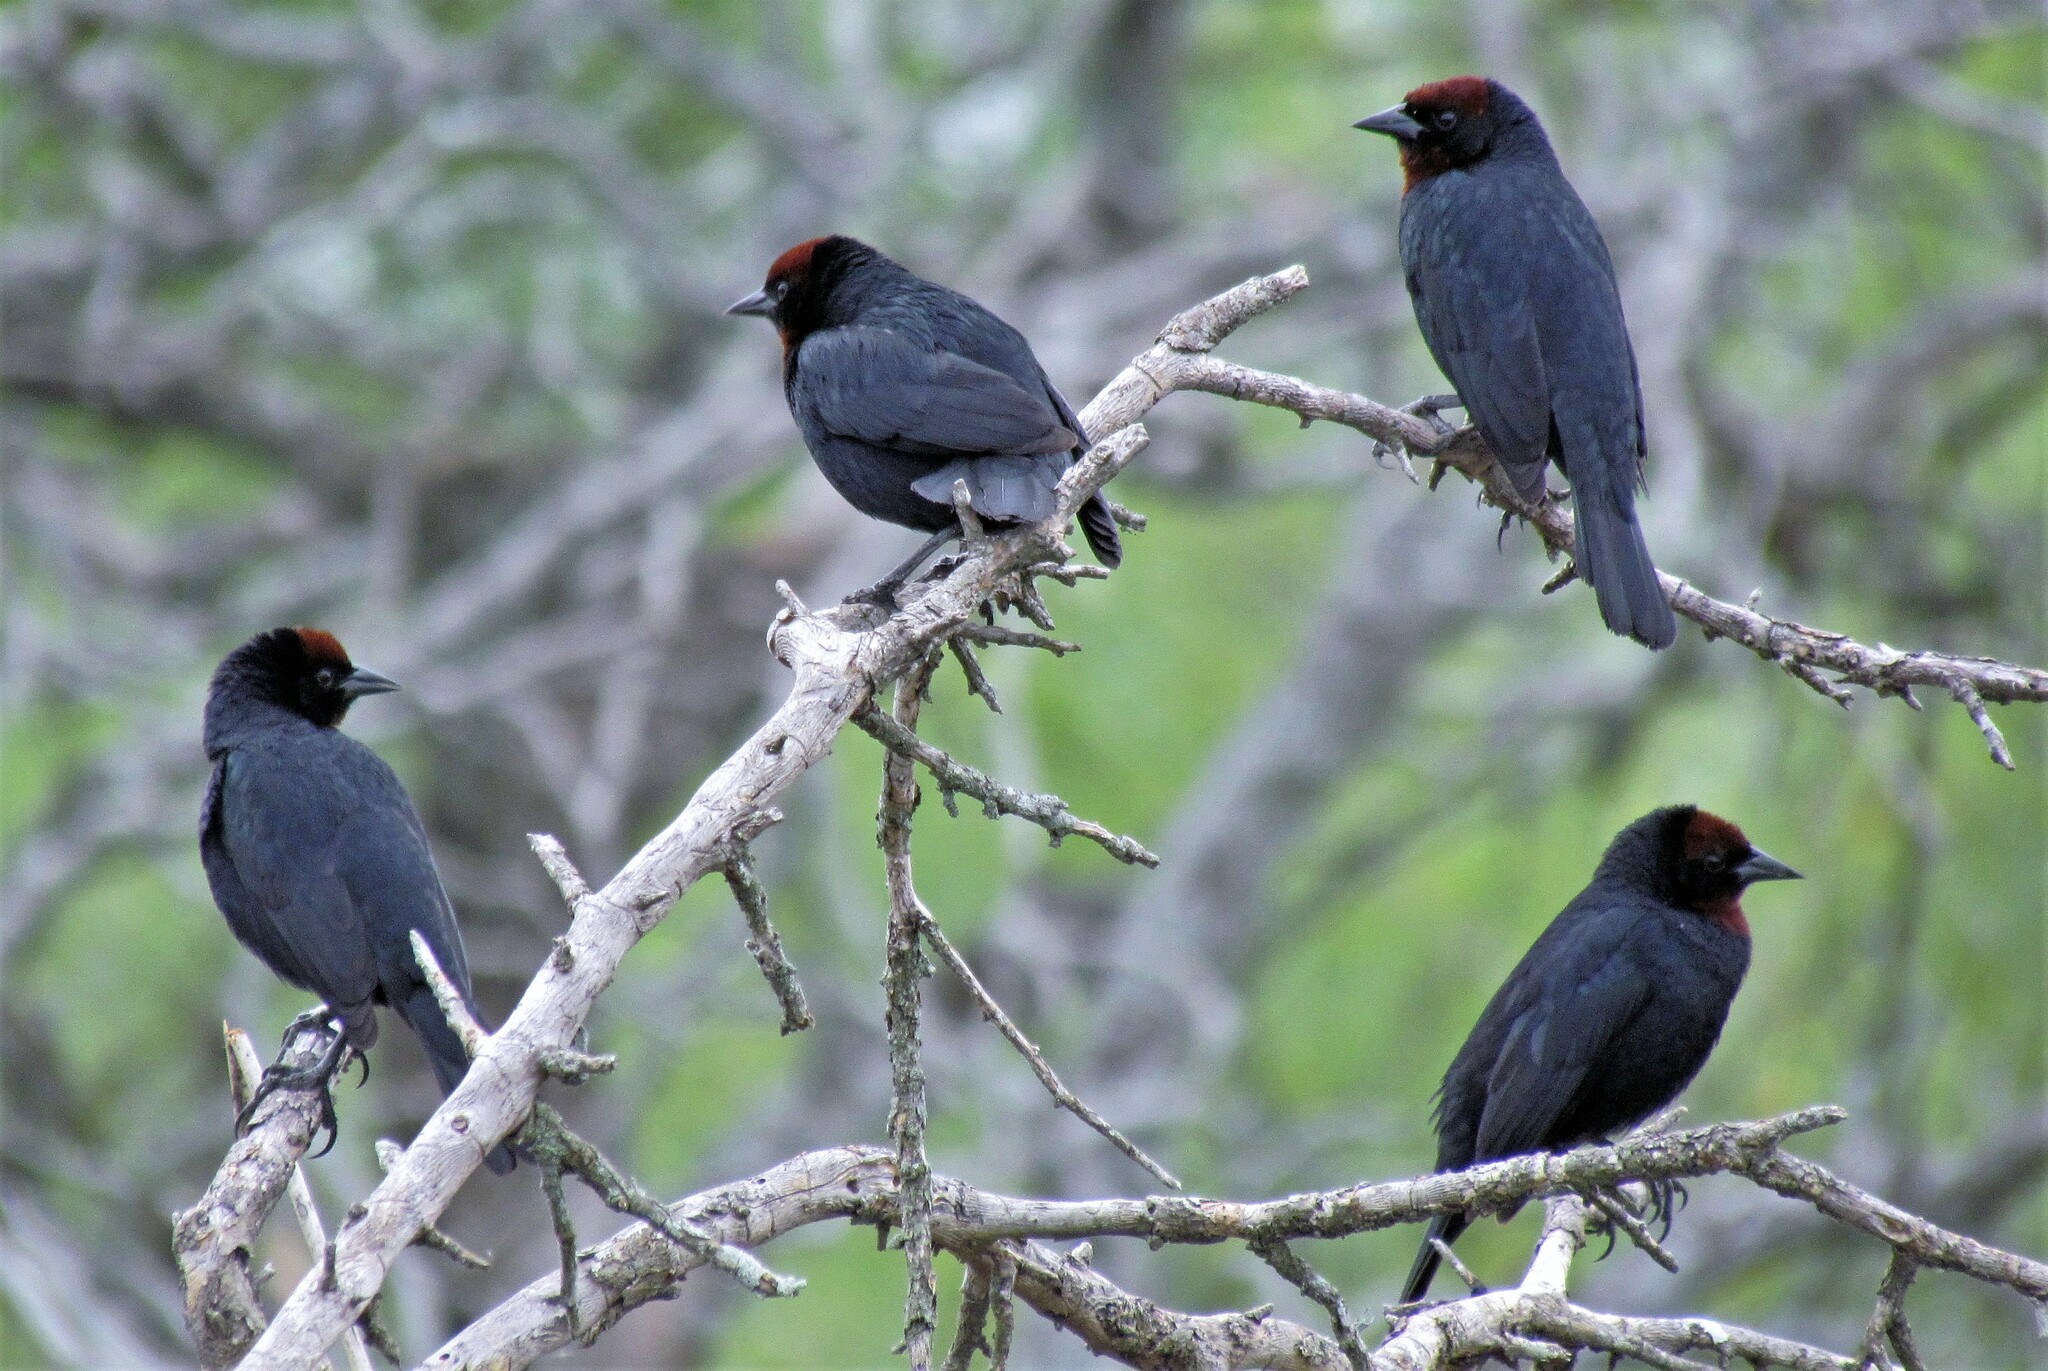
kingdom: Animalia
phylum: Chordata
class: Aves
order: Passeriformes
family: Icteridae
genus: Chrysomus
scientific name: Chrysomus ruficapillus
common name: Chestnut-capped blackbird
